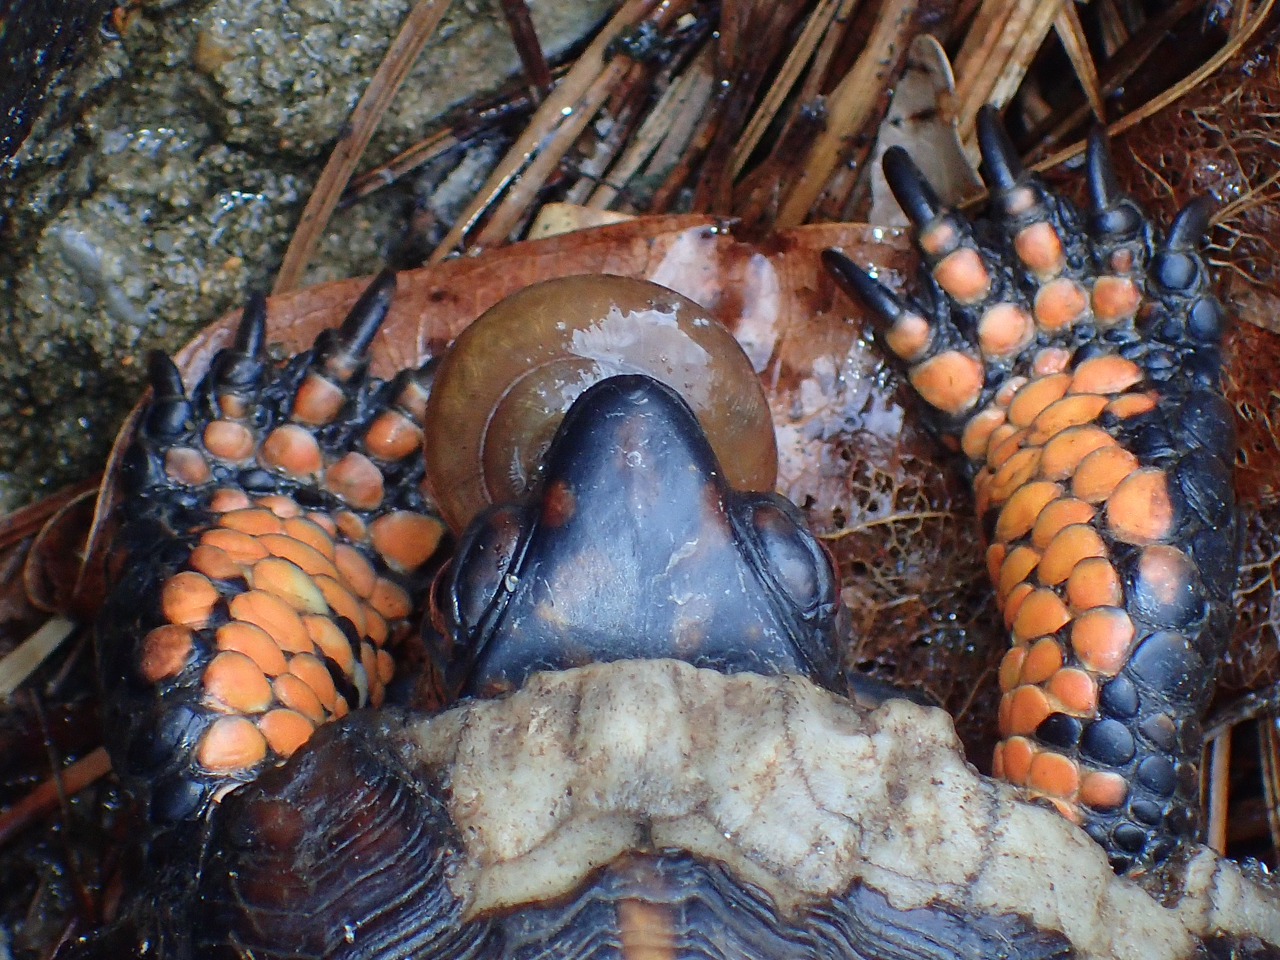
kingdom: Animalia
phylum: Chordata
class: Testudines
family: Emydidae
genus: Terrapene
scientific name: Terrapene carolina
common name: Common box turtle
